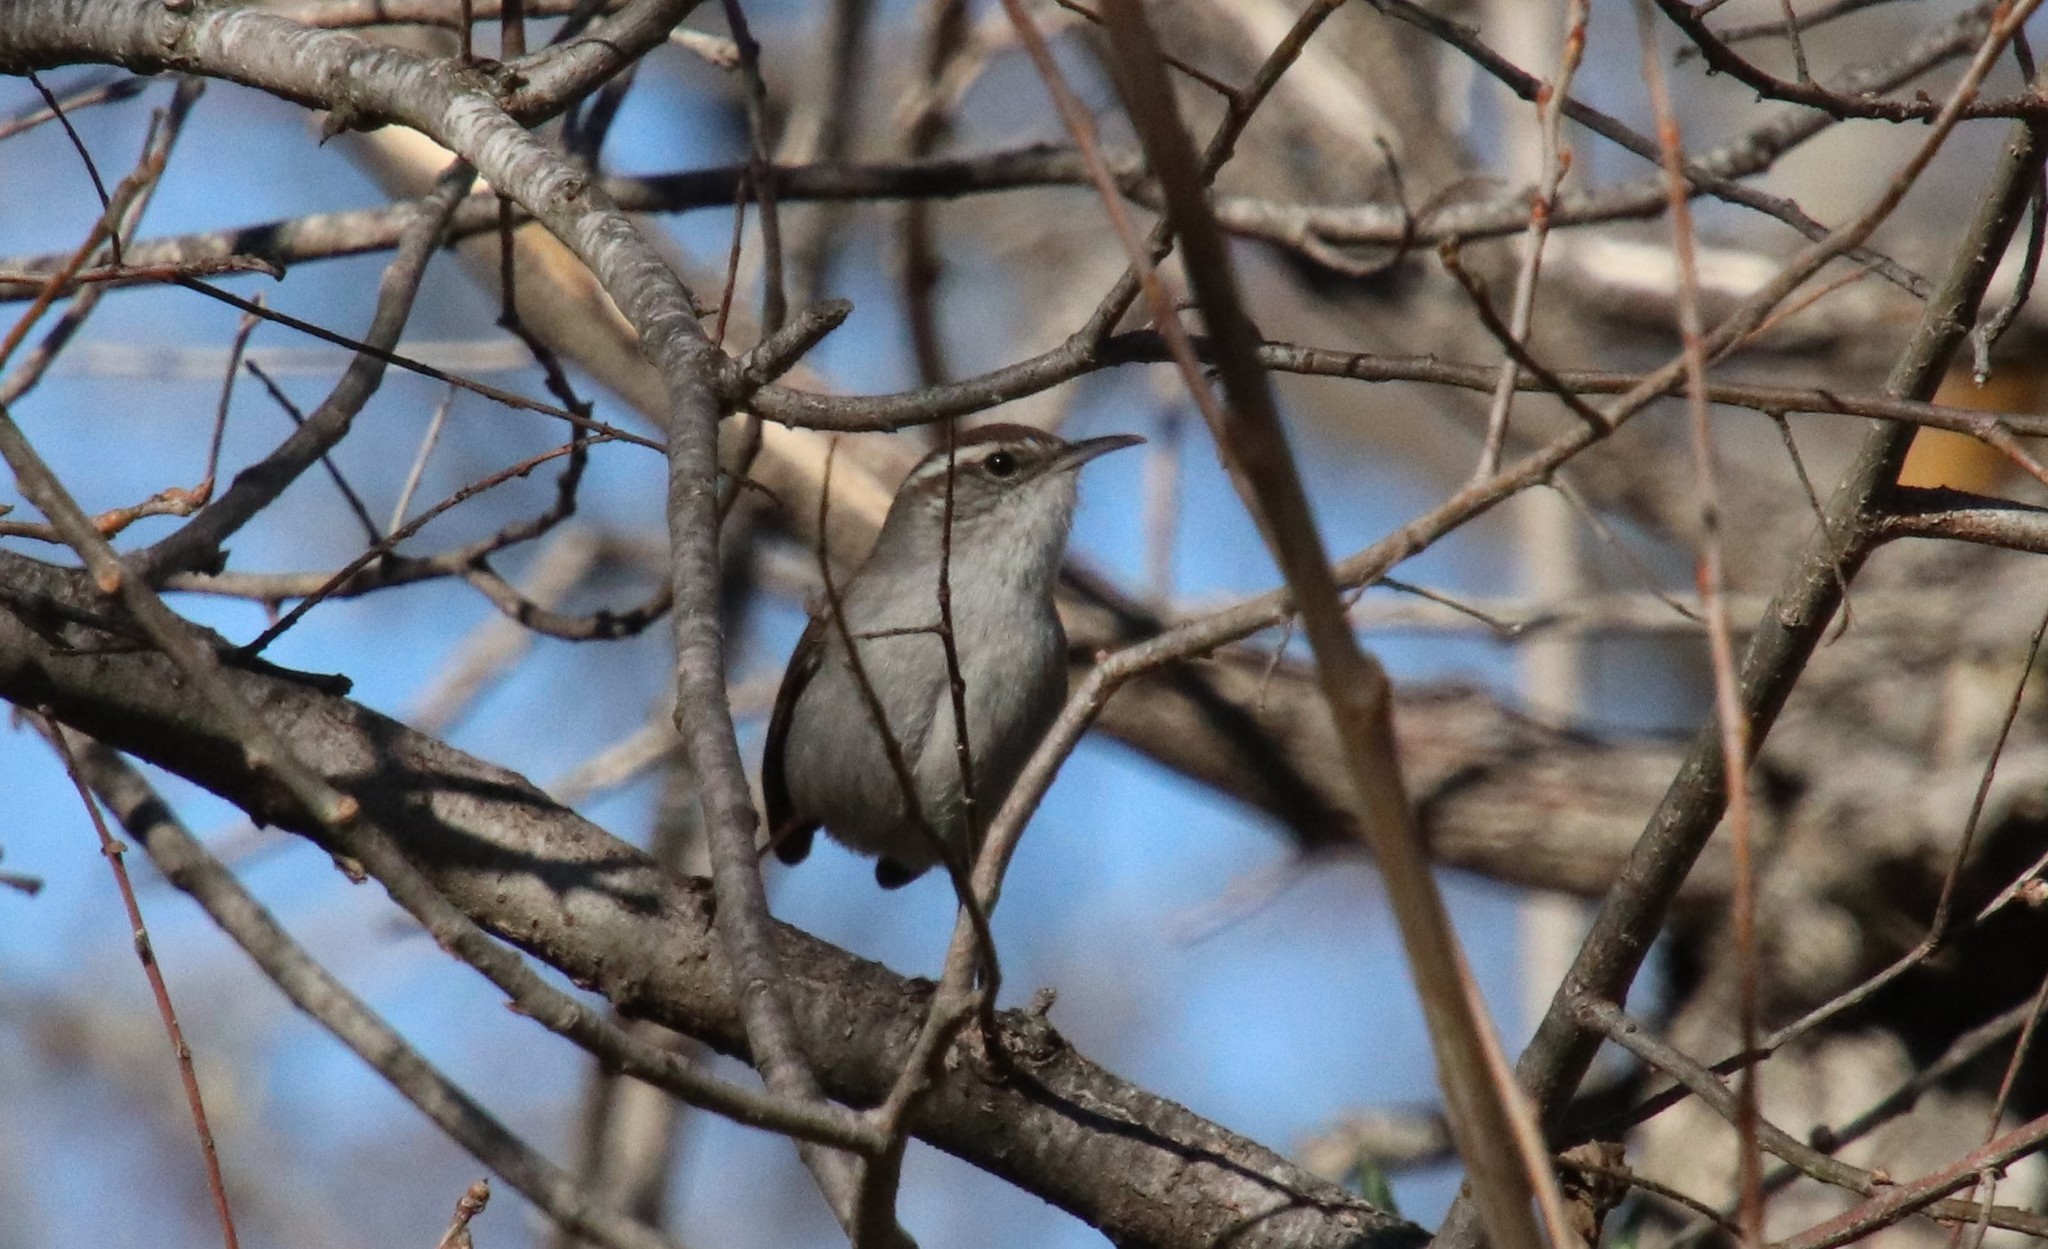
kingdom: Animalia
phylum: Chordata
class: Aves
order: Passeriformes
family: Troglodytidae
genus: Thryomanes
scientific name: Thryomanes bewickii
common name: Bewick's wren
